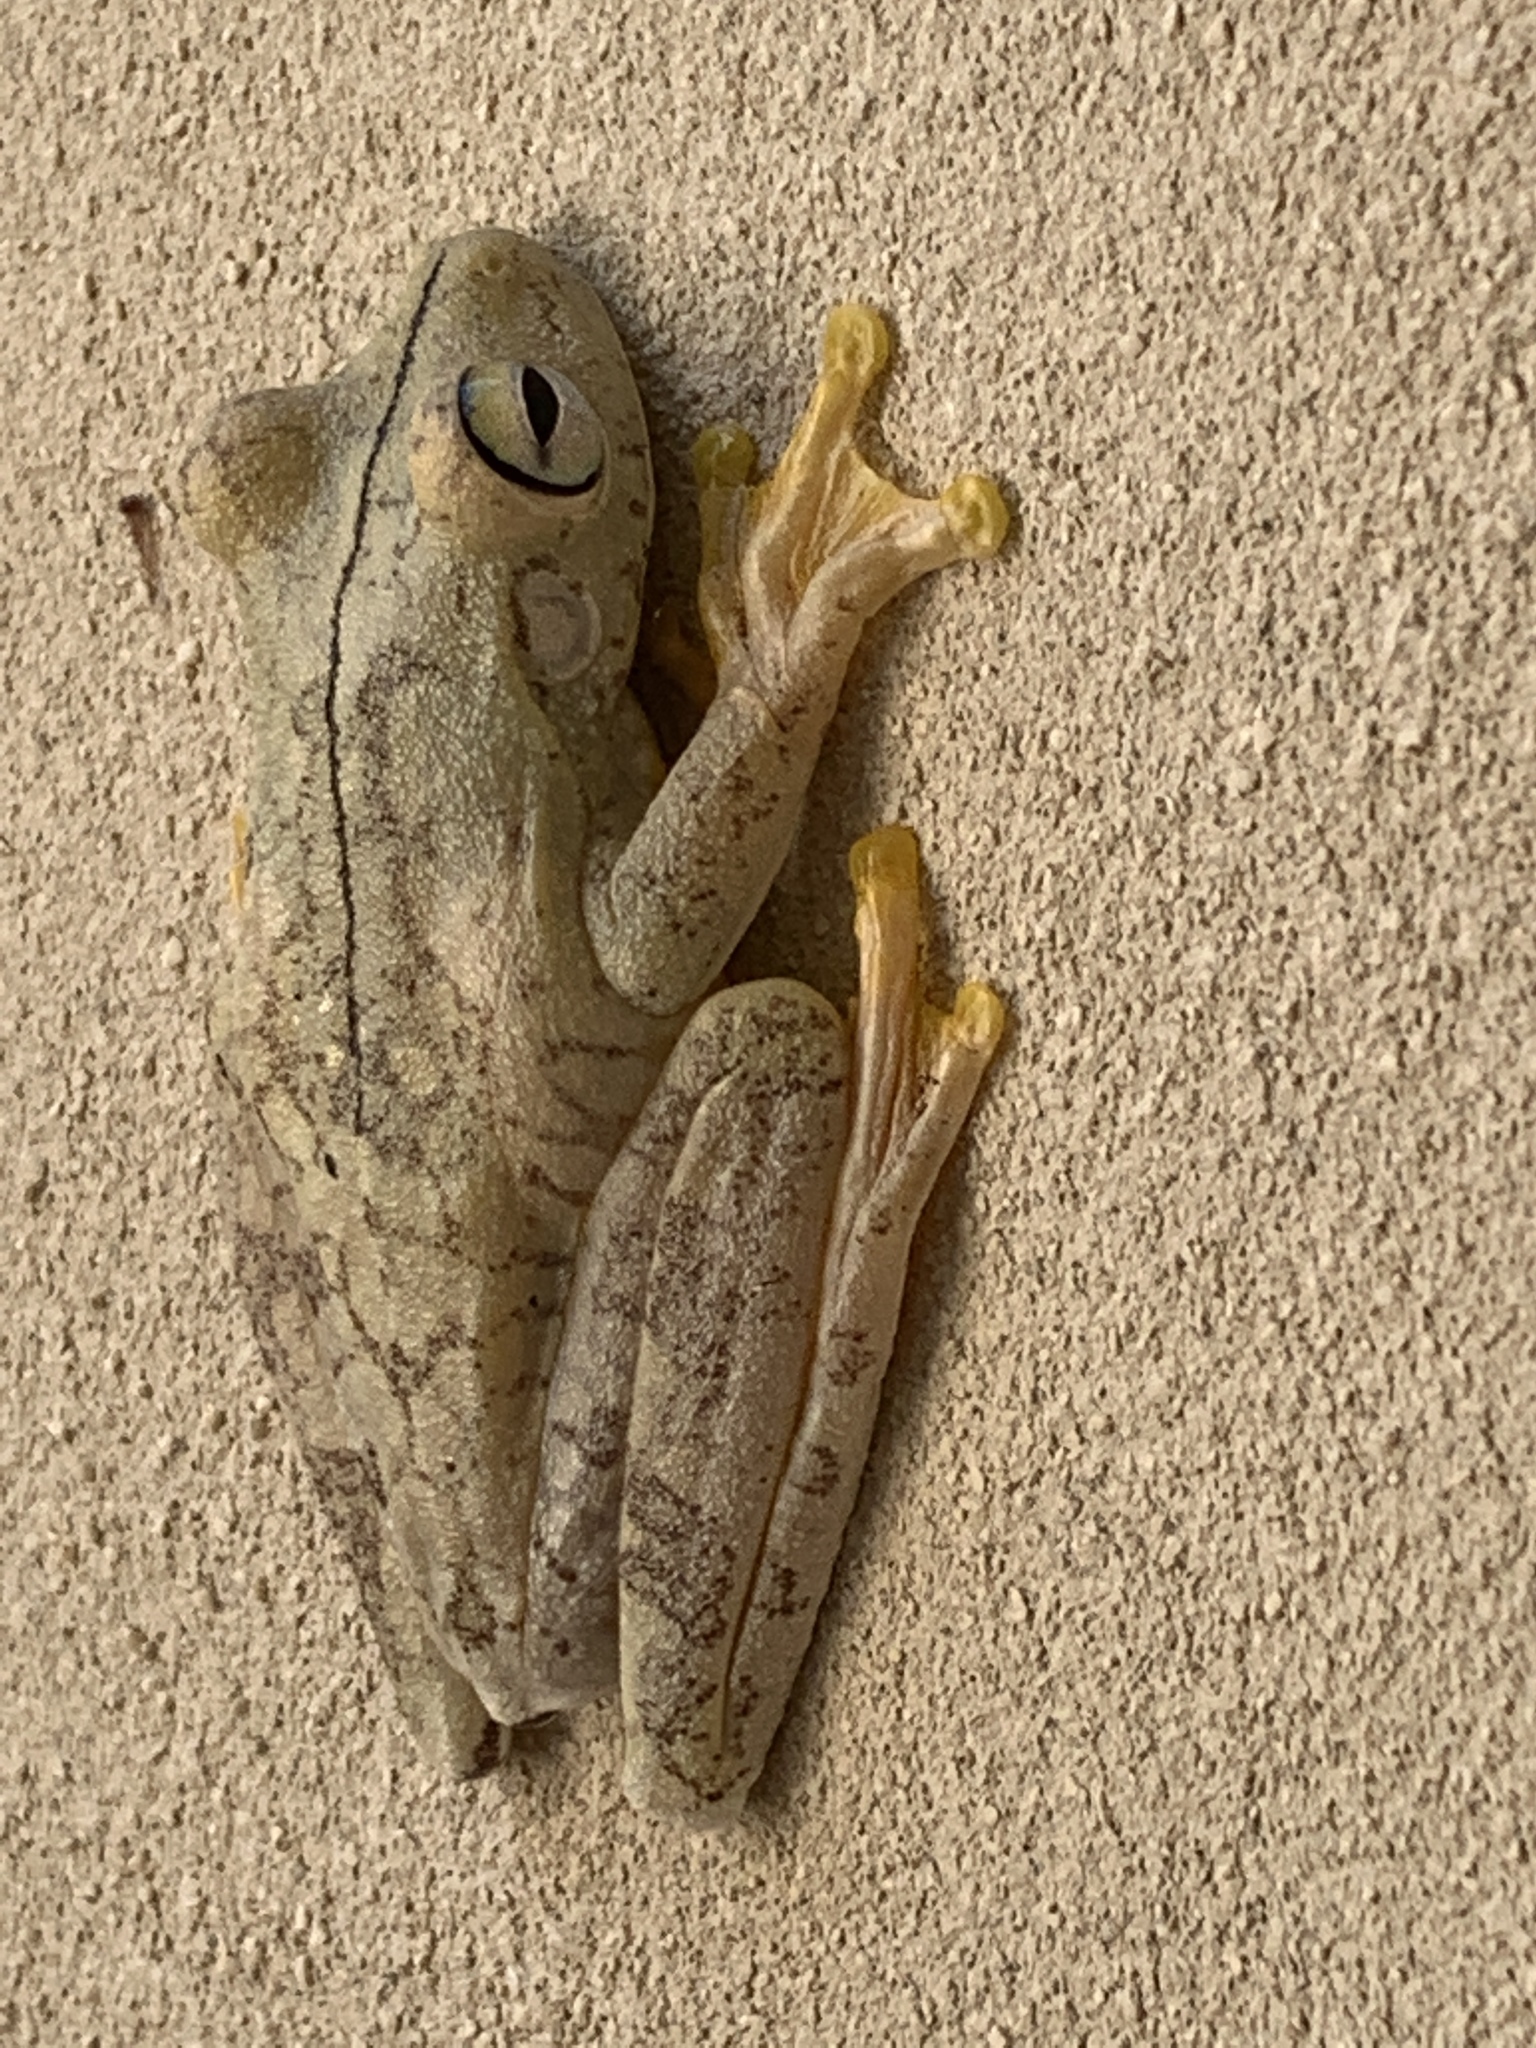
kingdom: Animalia
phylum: Chordata
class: Amphibia
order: Anura
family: Hylidae
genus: Boana
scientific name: Boana rosenbergi
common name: Rosenberg´s gladiator treefrog
